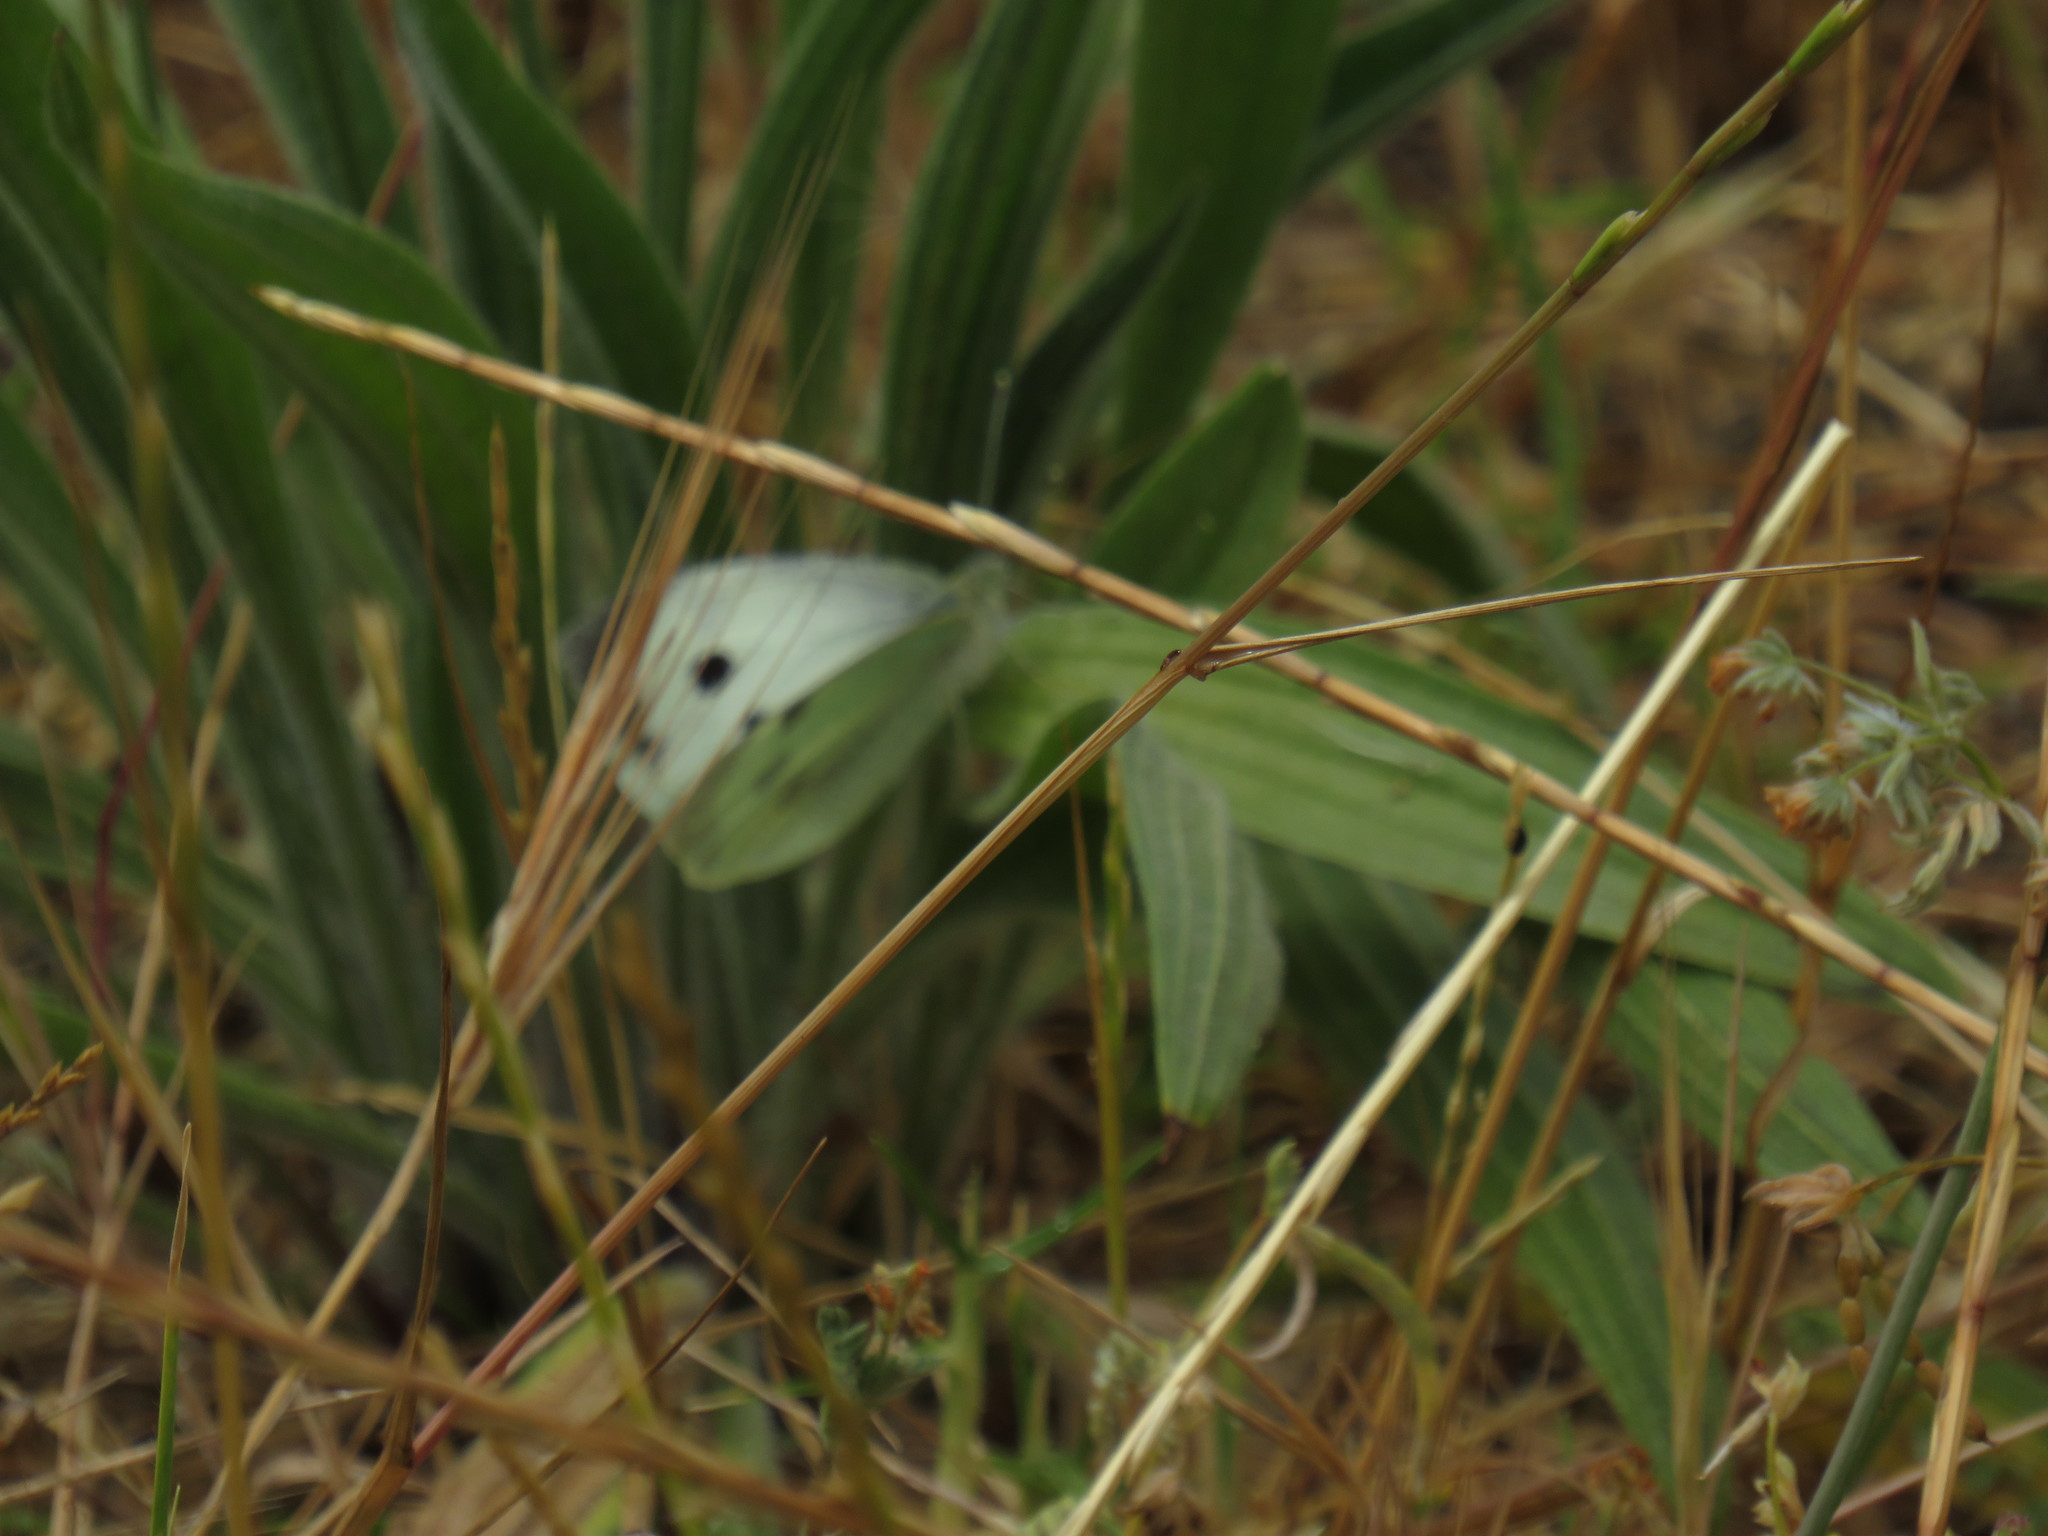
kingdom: Animalia
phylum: Arthropoda
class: Insecta
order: Lepidoptera
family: Pieridae
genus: Pieris
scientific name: Pieris brassicae
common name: Large white
